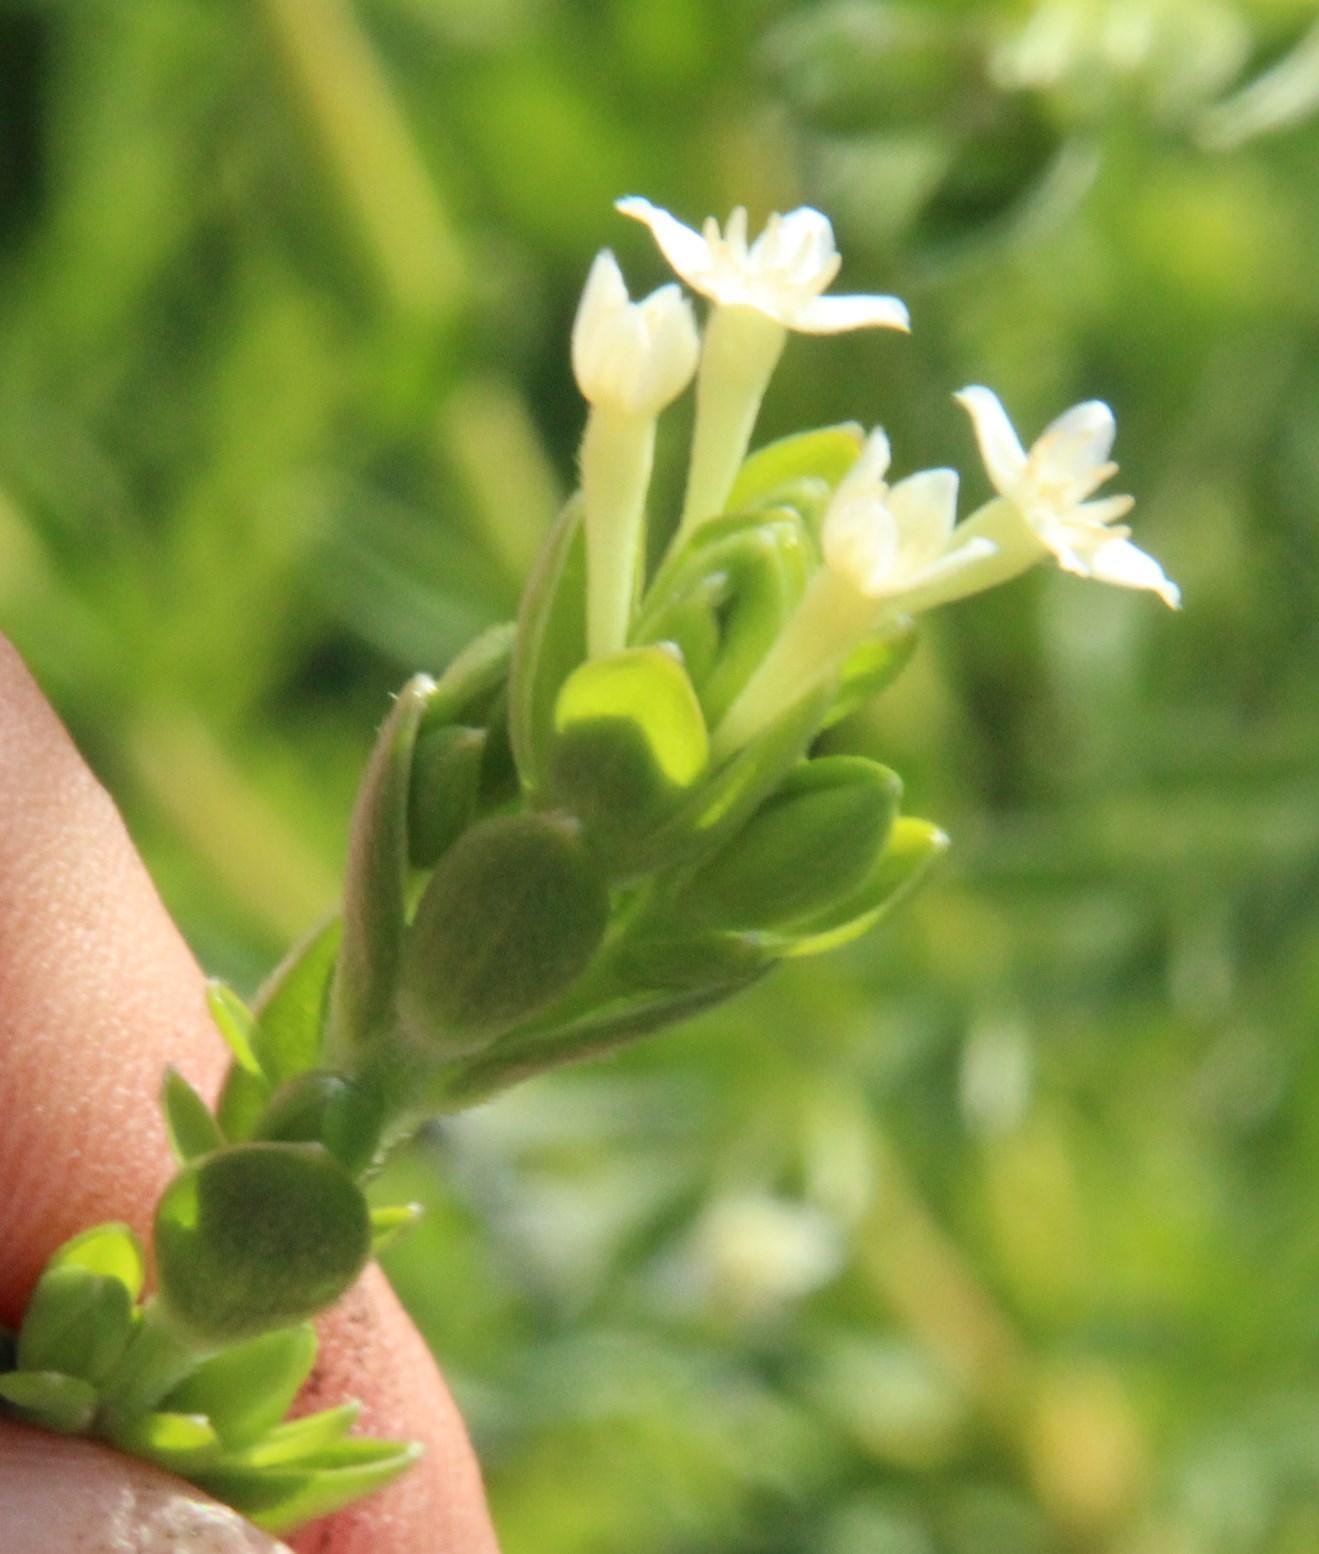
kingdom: Plantae
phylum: Tracheophyta
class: Magnoliopsida
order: Malvales
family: Thymelaeaceae
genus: Gnidia
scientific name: Gnidia sericea
